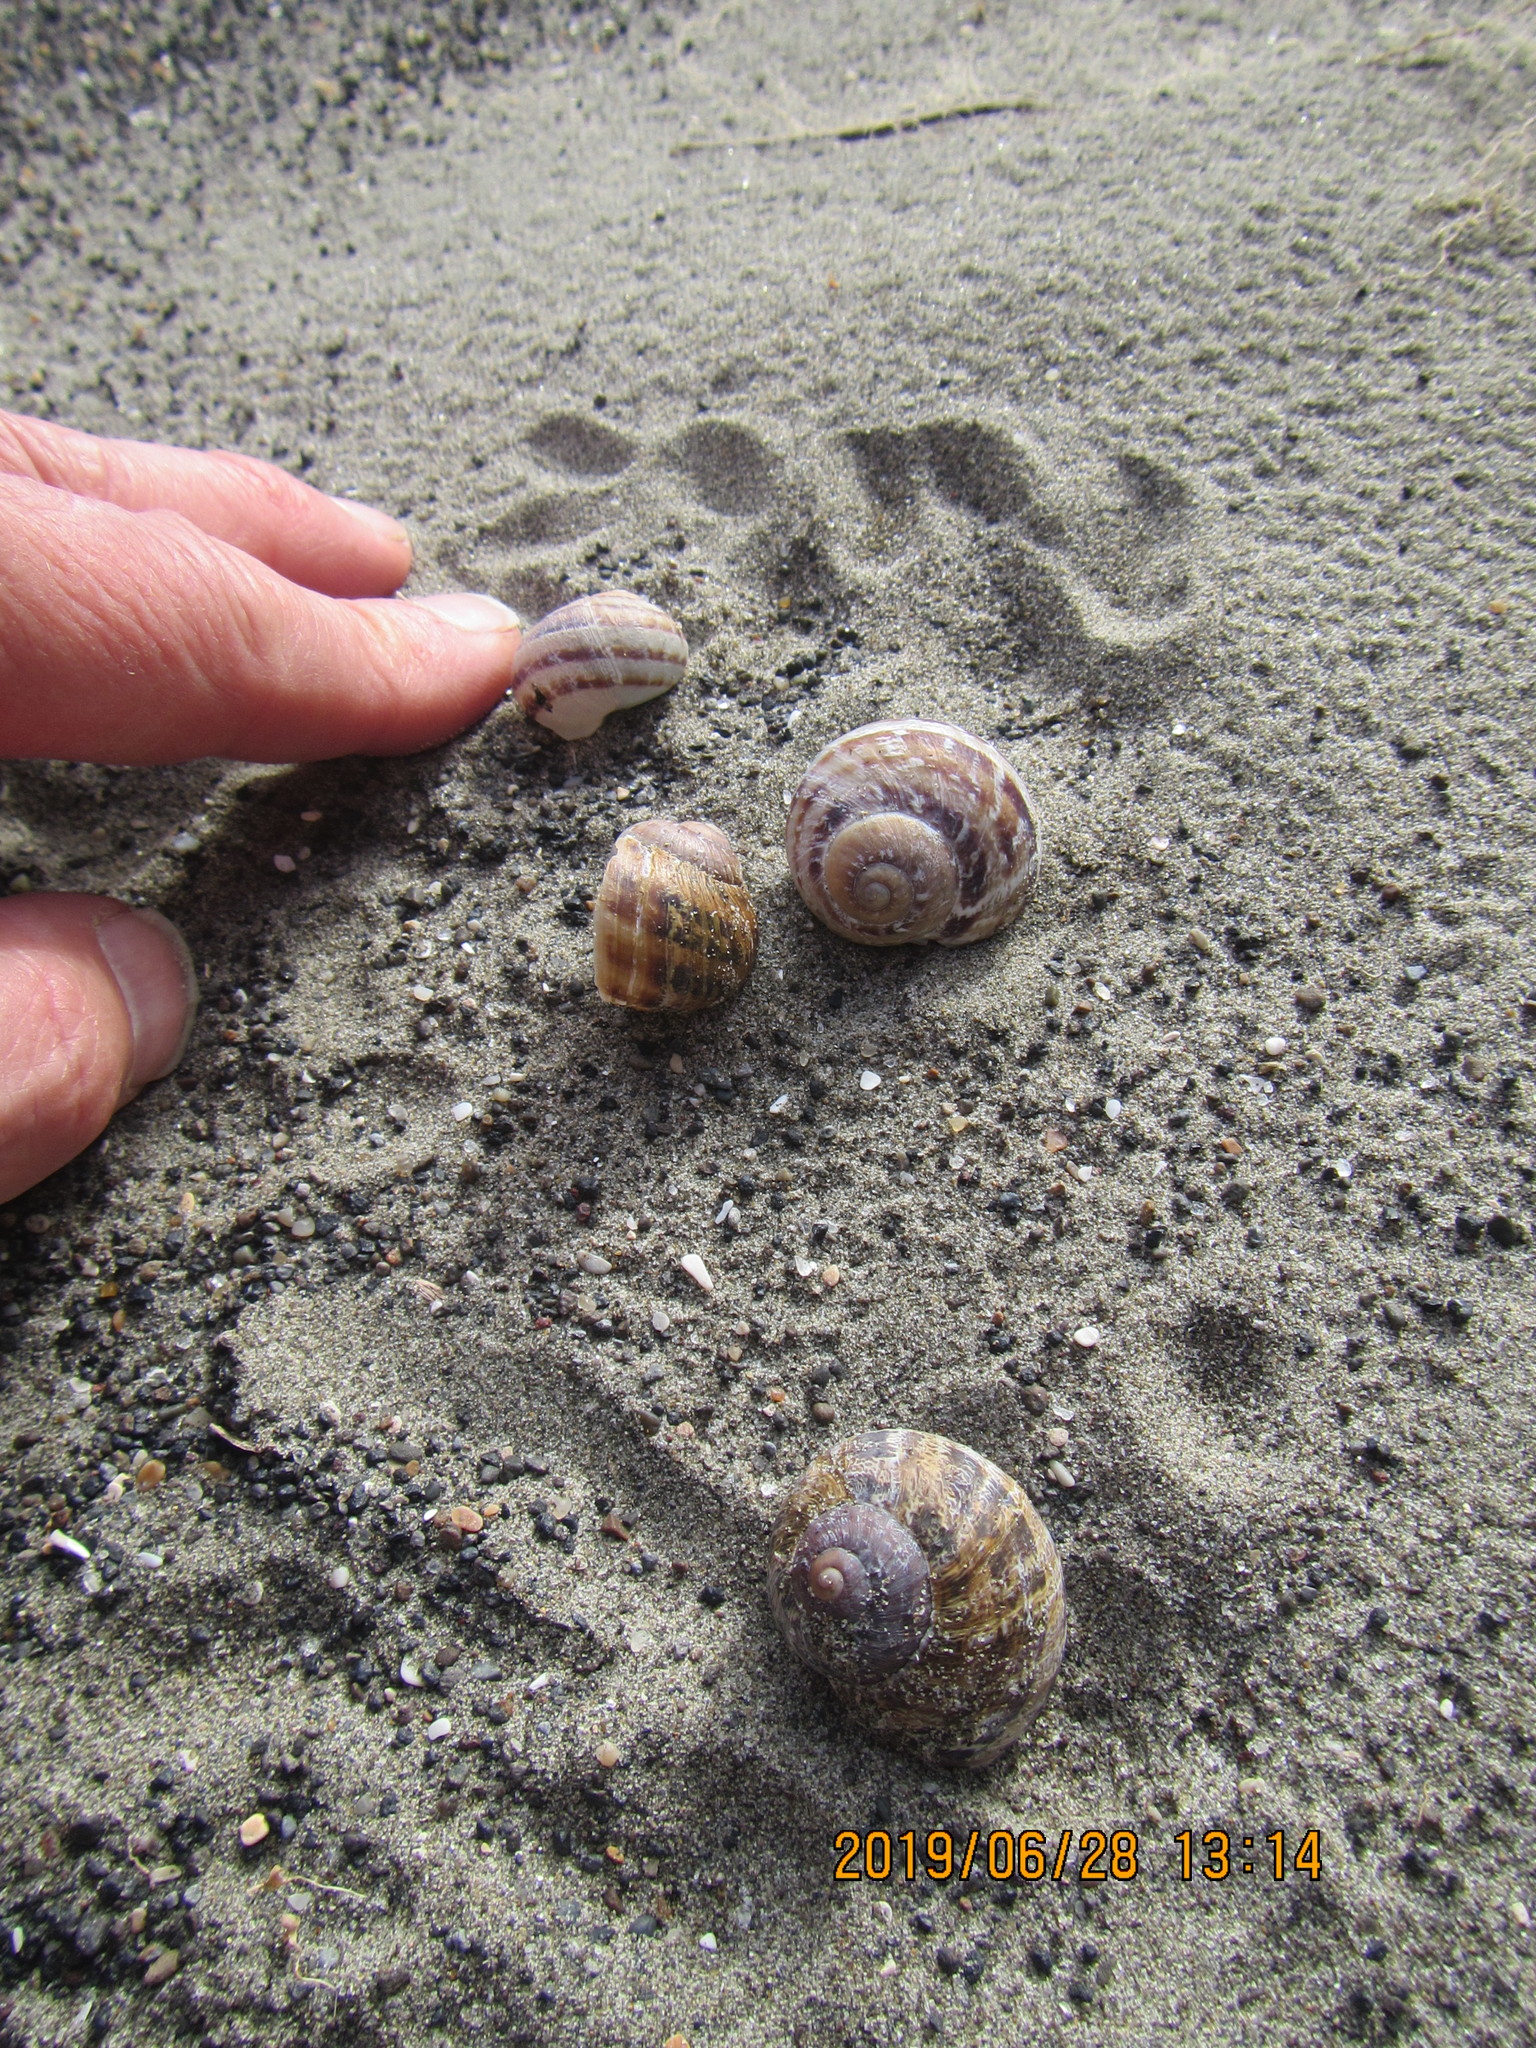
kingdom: Animalia
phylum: Mollusca
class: Gastropoda
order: Stylommatophora
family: Helicidae
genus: Cornu
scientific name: Cornu aspersum
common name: Brown garden snail
